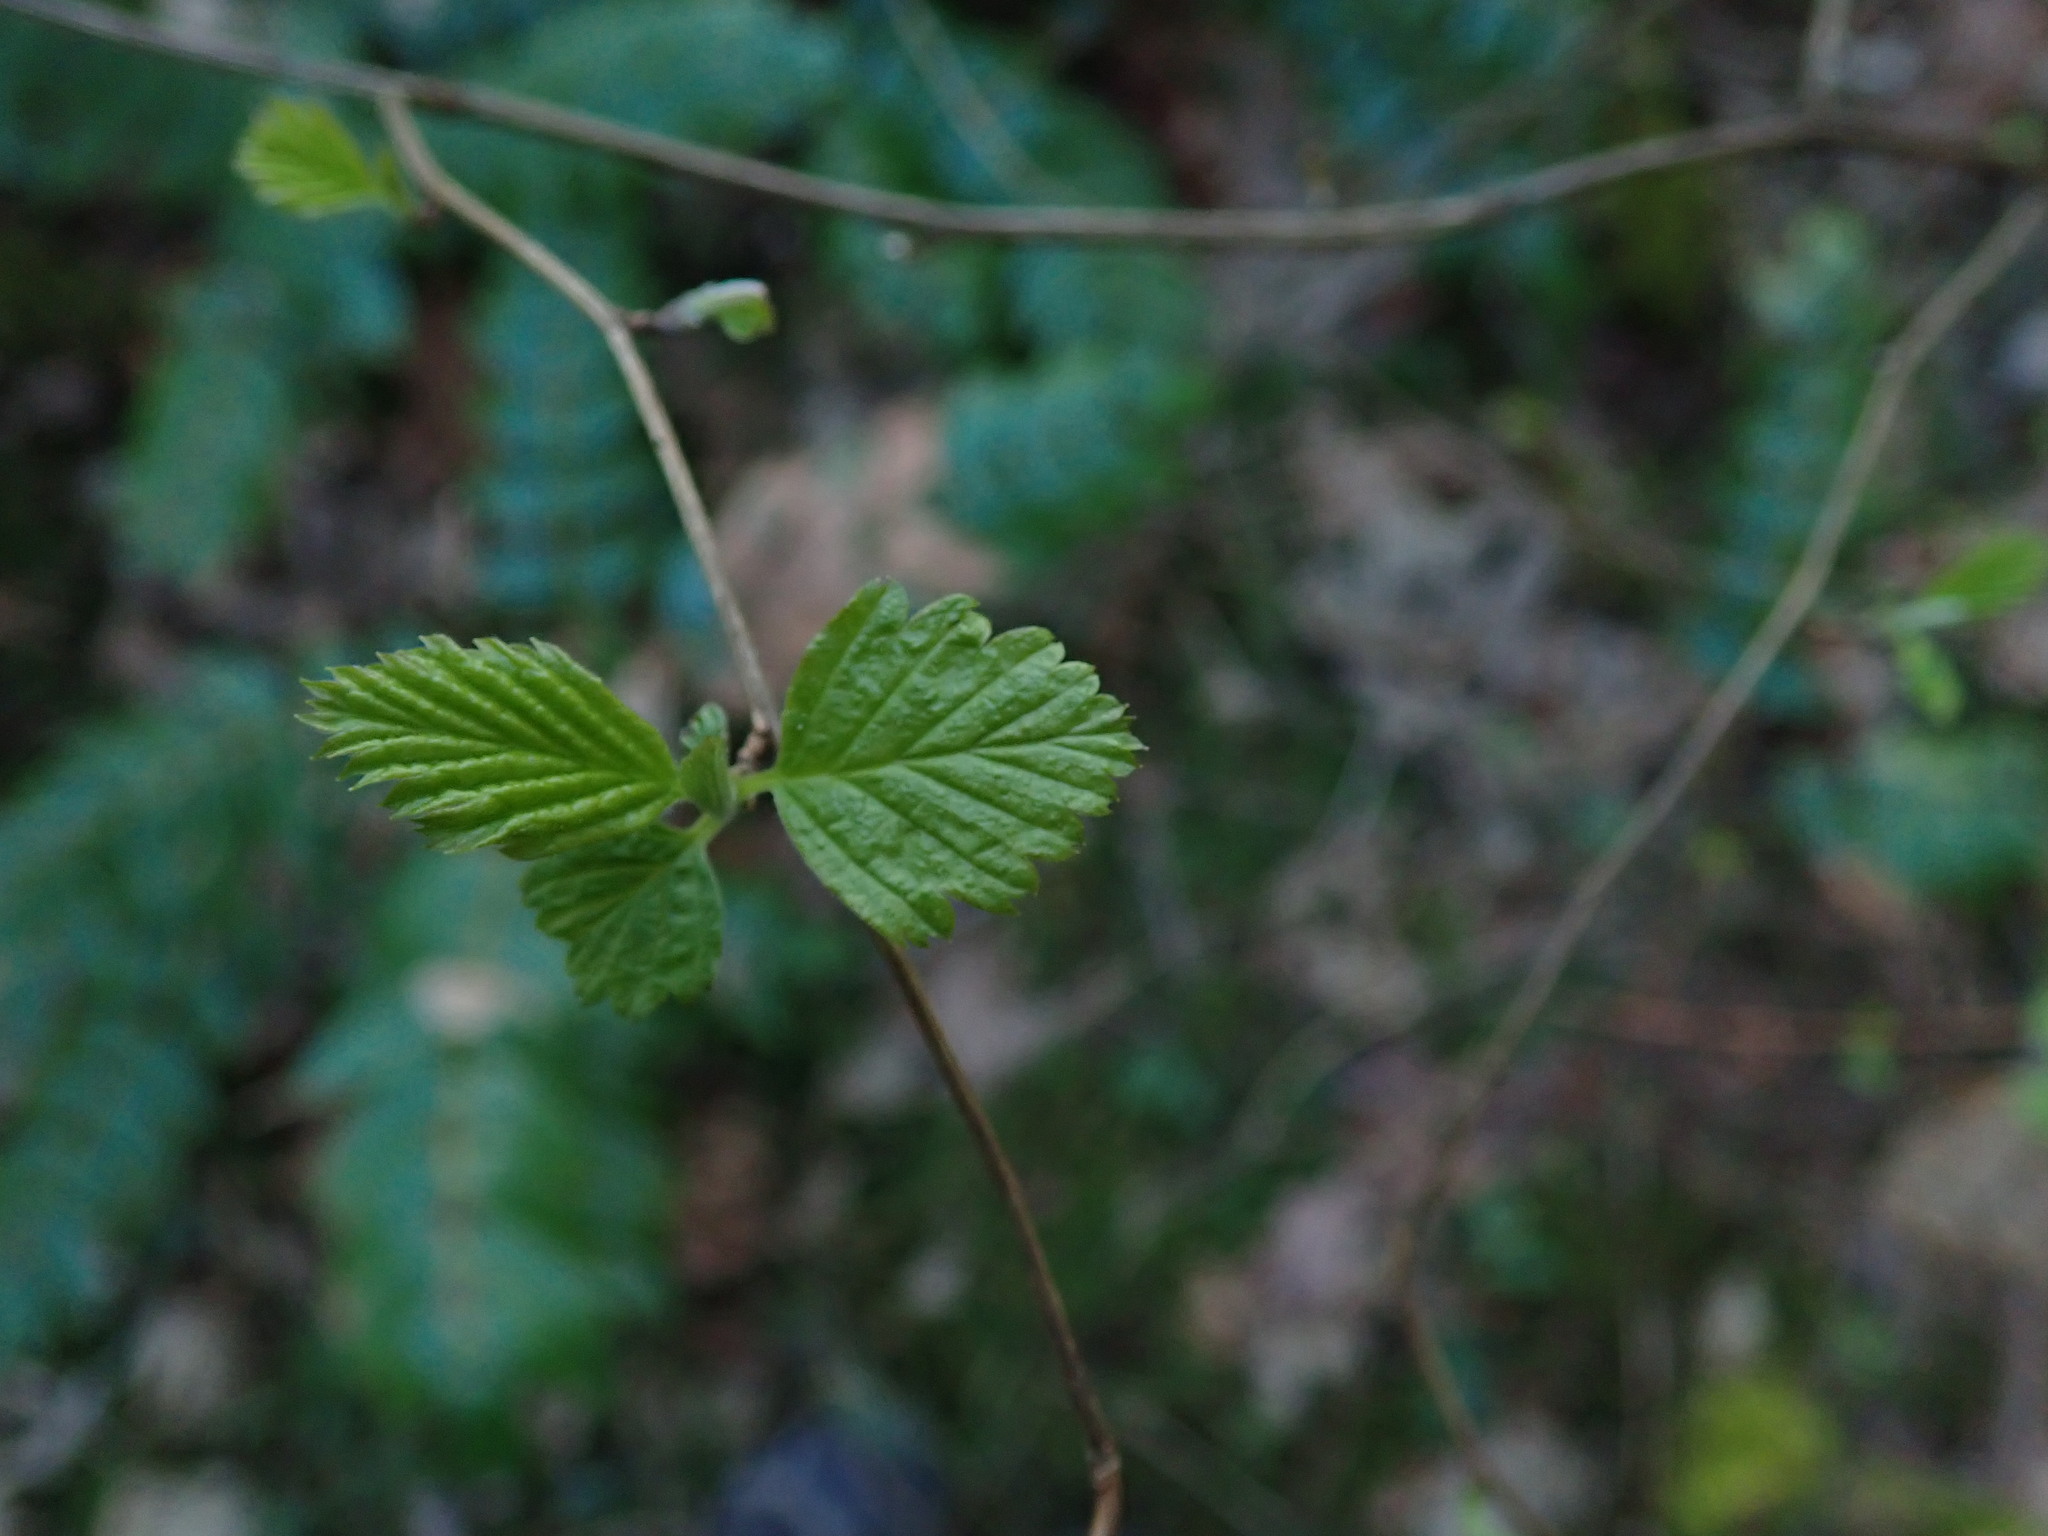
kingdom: Plantae
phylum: Tracheophyta
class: Magnoliopsida
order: Rosales
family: Rosaceae
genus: Holodiscus
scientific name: Holodiscus discolor
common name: Oceanspray
